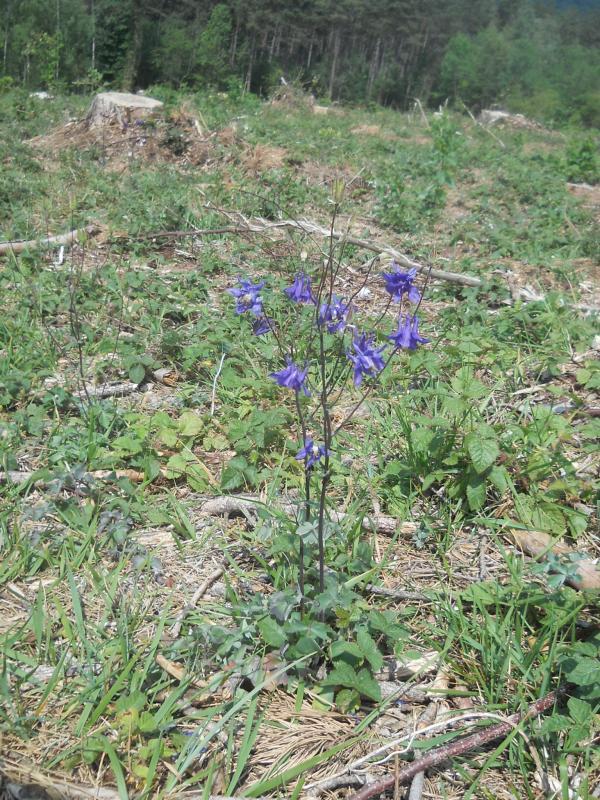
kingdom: Plantae
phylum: Tracheophyta
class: Magnoliopsida
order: Ranunculales
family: Ranunculaceae
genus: Aquilegia
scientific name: Aquilegia vulgaris
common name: Columbine
